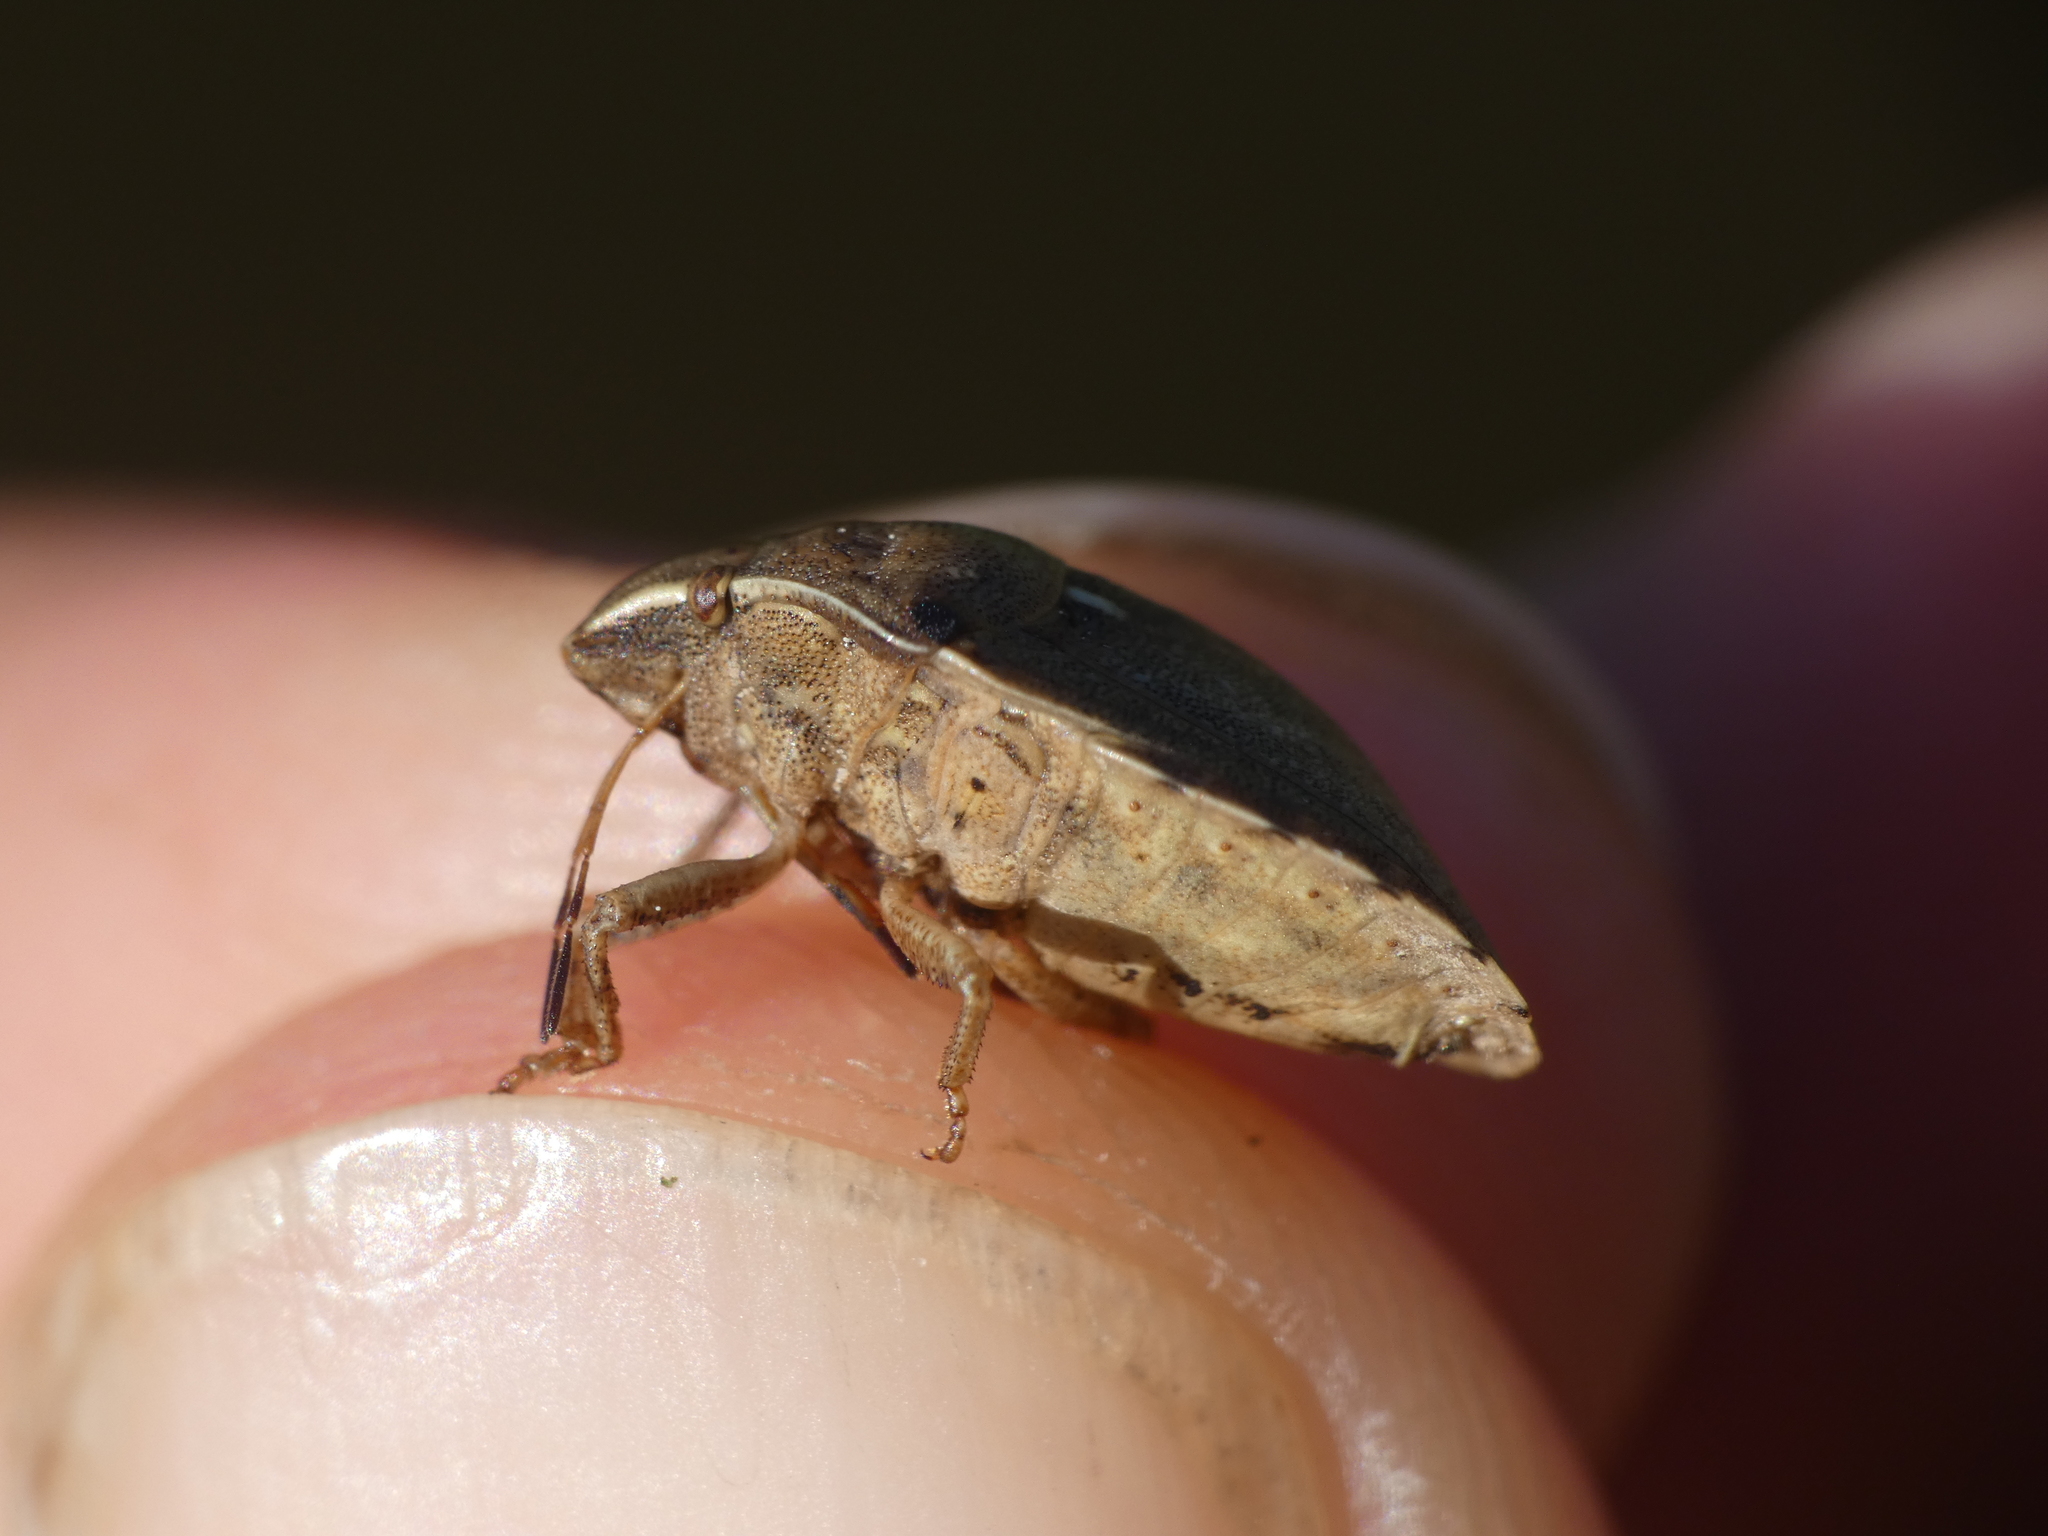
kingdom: Animalia
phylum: Arthropoda
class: Insecta
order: Hemiptera
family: Scutelleridae
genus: Eurygaster
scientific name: Eurygaster maura
